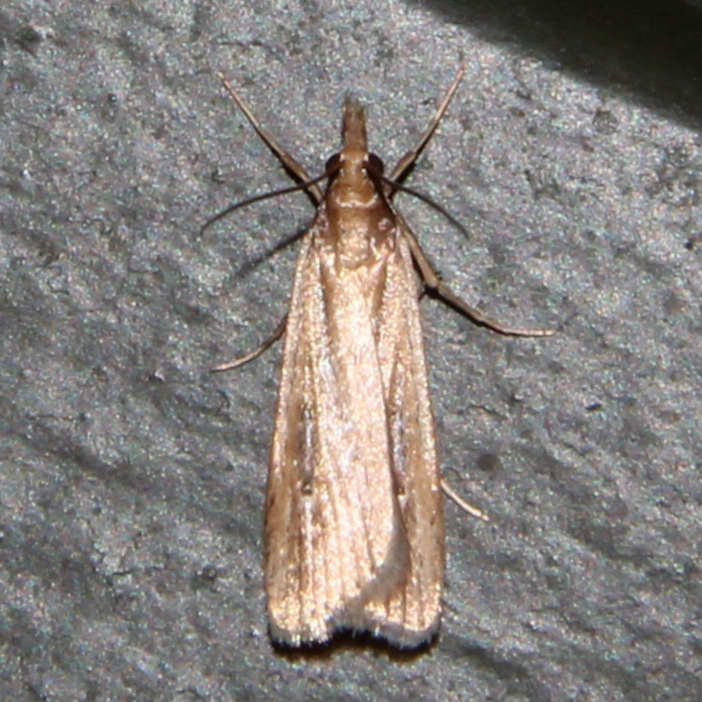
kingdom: Animalia
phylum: Arthropoda
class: Insecta
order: Lepidoptera
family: Crambidae
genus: Eudonia
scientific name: Eudonia sabulosella
